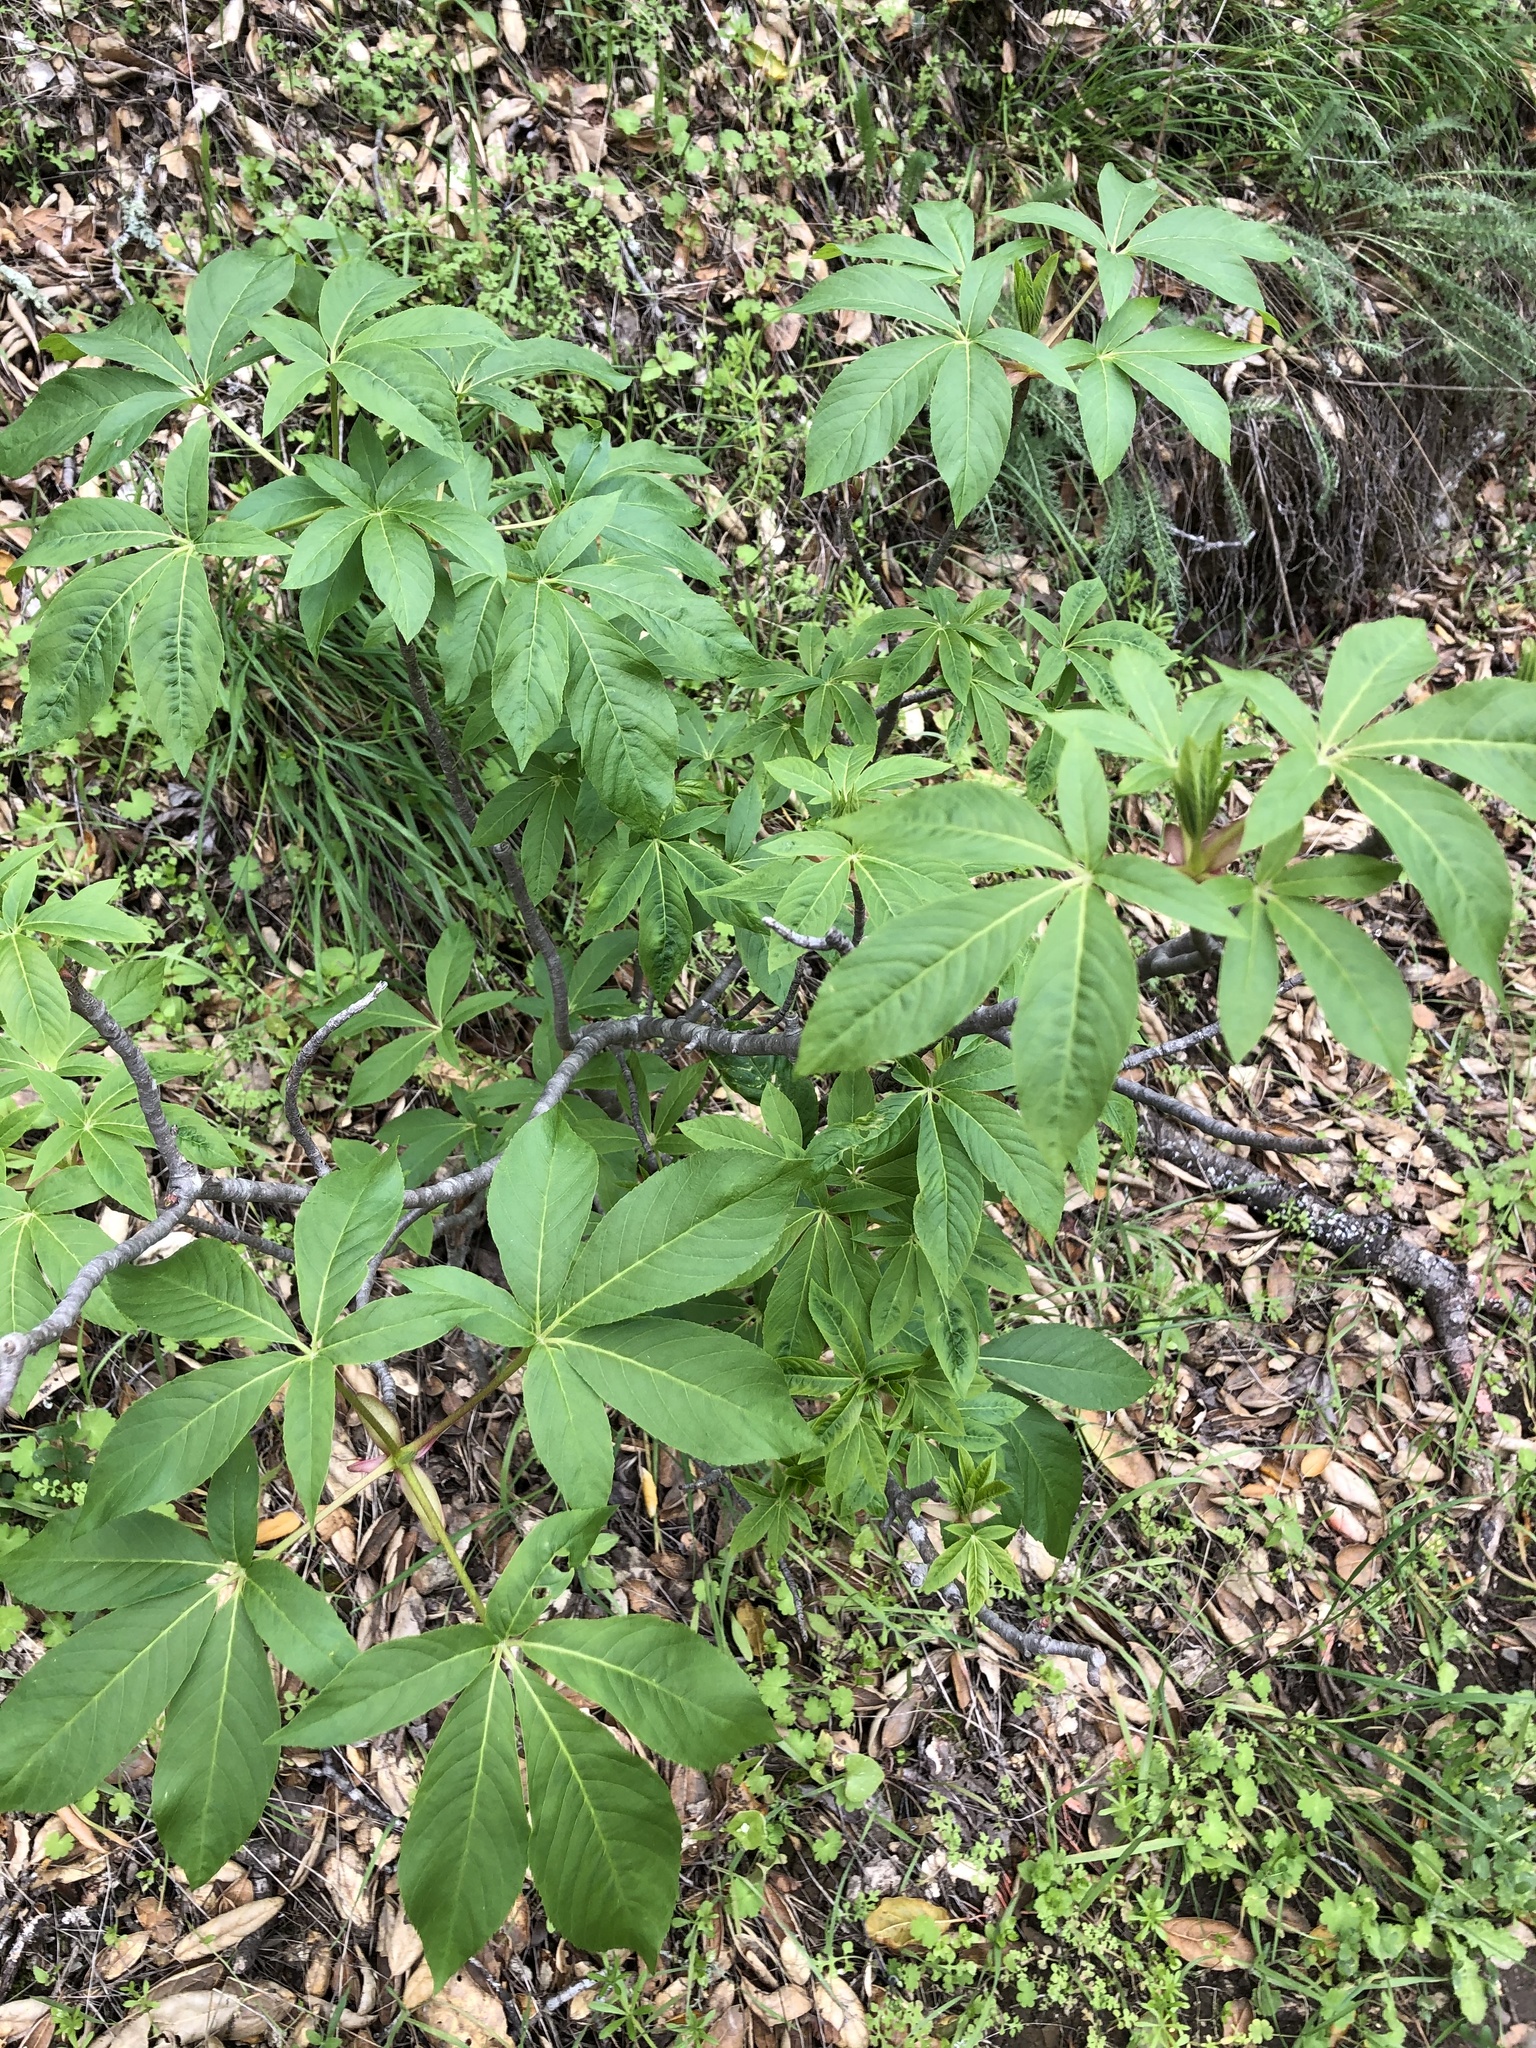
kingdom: Plantae
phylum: Tracheophyta
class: Magnoliopsida
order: Sapindales
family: Sapindaceae
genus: Aesculus
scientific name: Aesculus californica
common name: California buckeye
